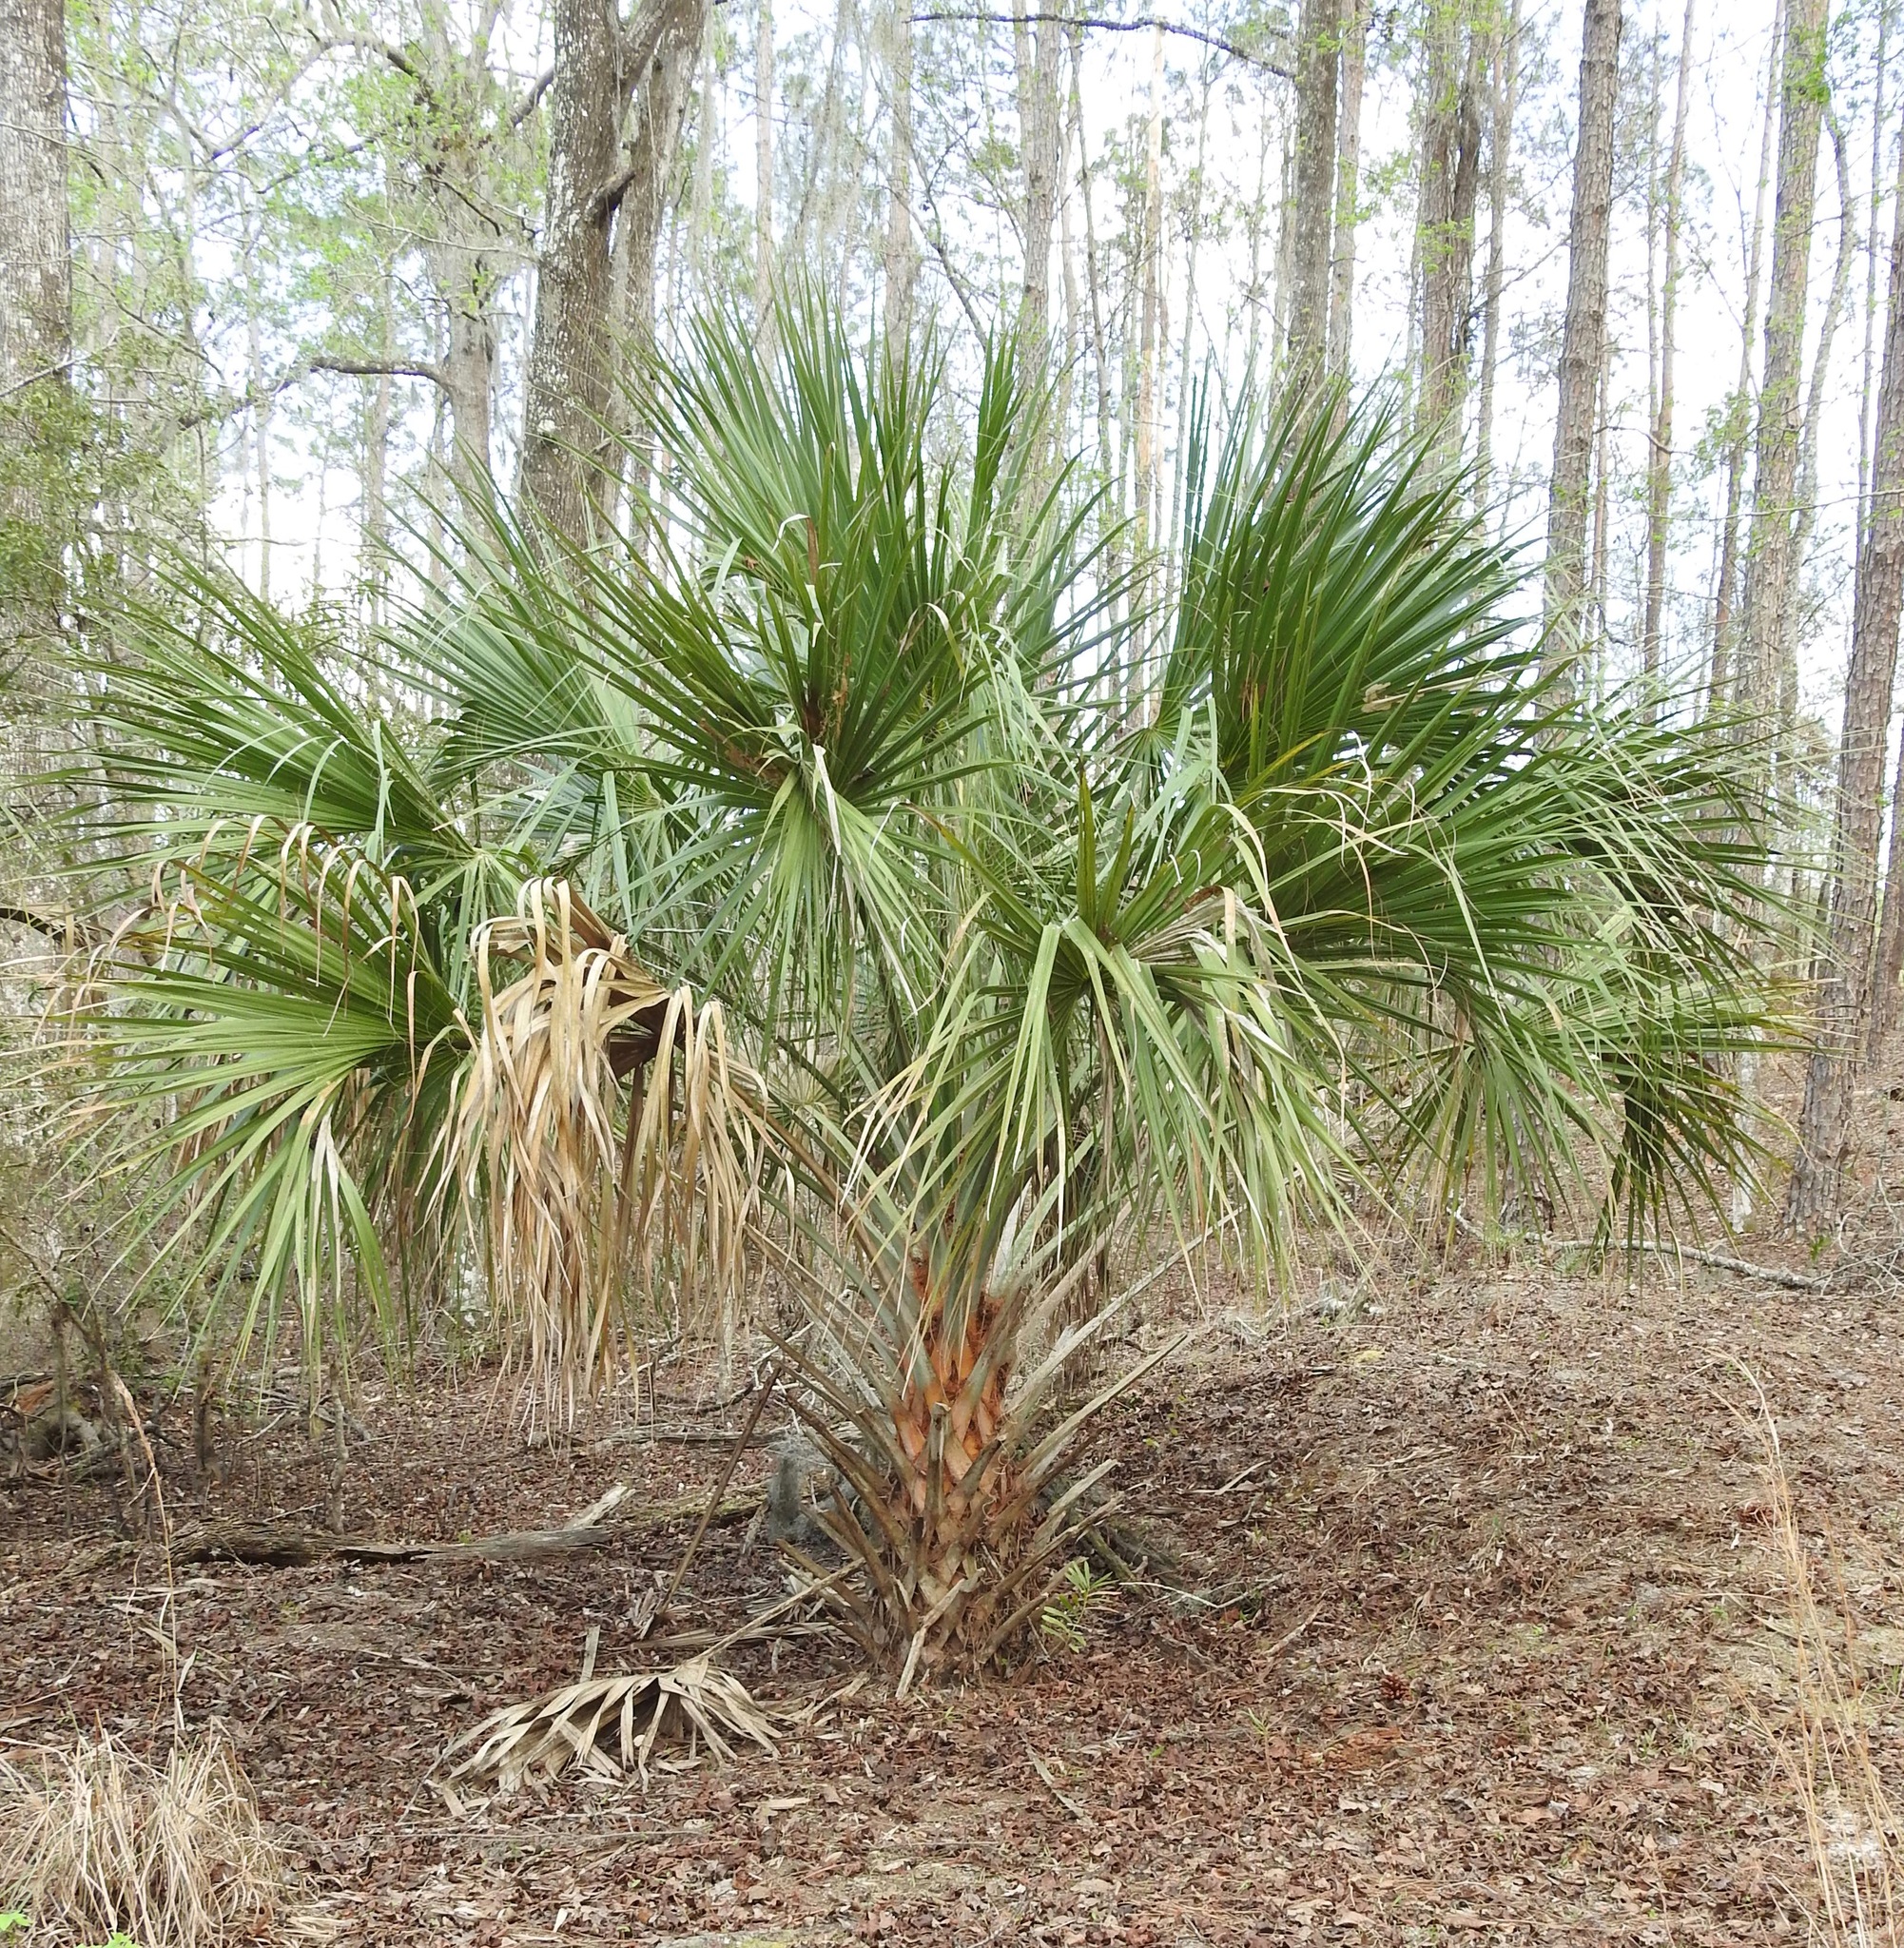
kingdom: Plantae
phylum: Tracheophyta
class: Liliopsida
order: Arecales
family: Arecaceae
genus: Sabal
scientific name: Sabal palmetto
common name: Blue palmetto
